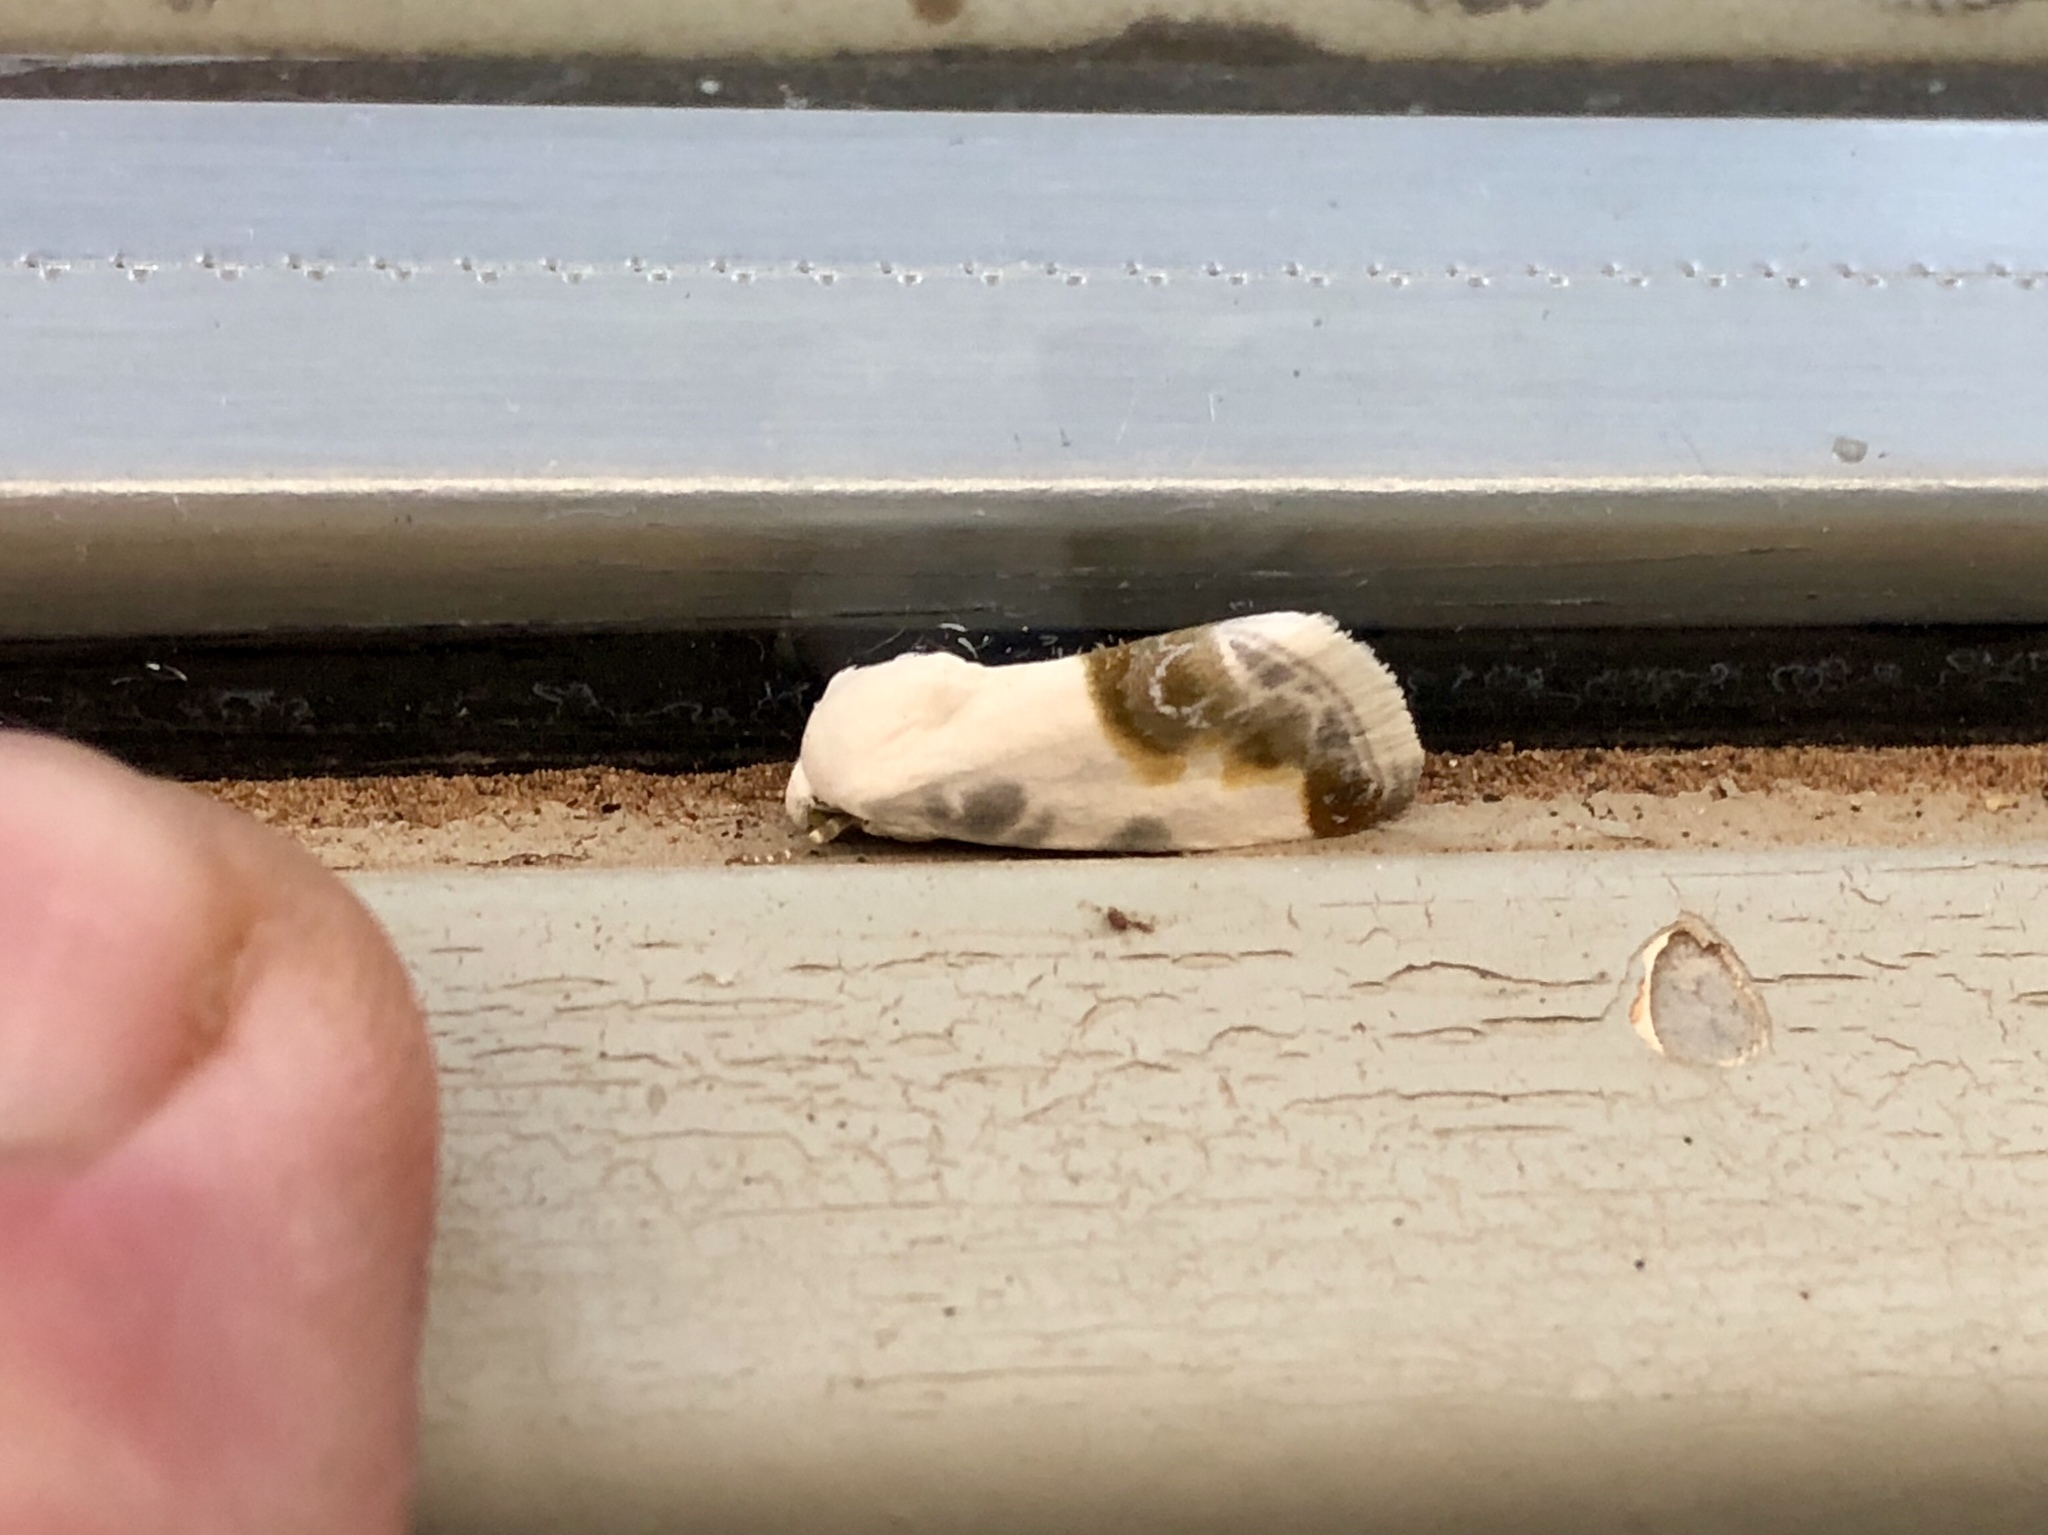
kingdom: Animalia
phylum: Arthropoda
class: Insecta
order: Lepidoptera
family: Noctuidae
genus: Acontia
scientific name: Acontia cretata
